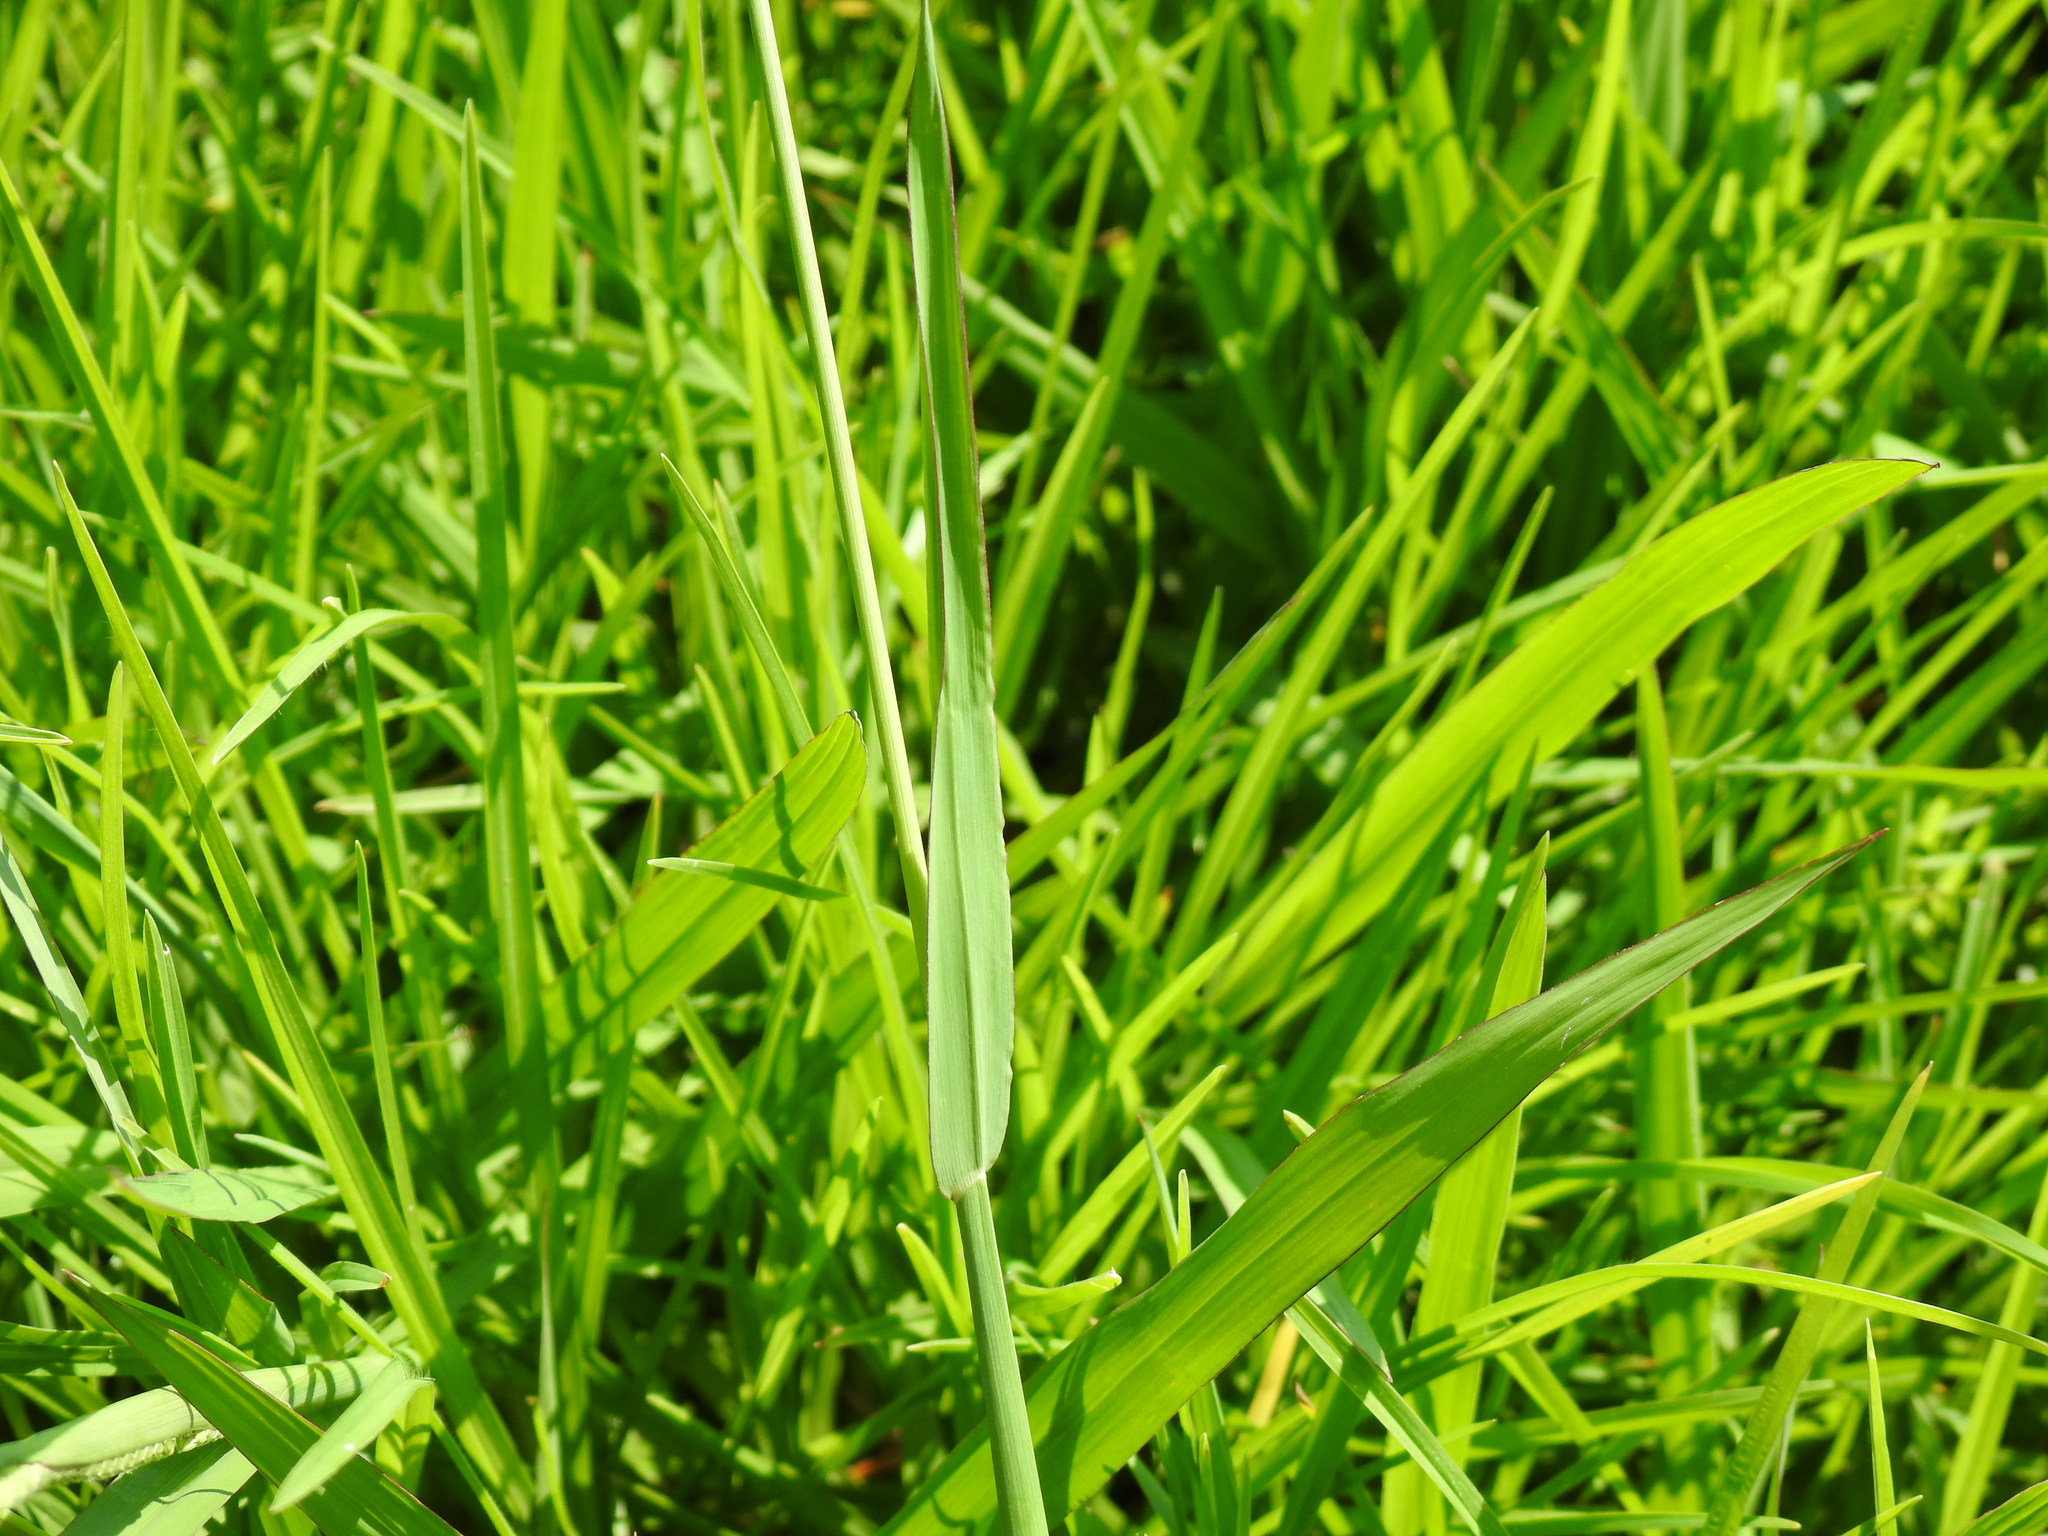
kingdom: Plantae
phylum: Tracheophyta
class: Liliopsida
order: Poales
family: Poaceae
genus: Paspalum
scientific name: Paspalum dilatatum
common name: Dallisgrass
